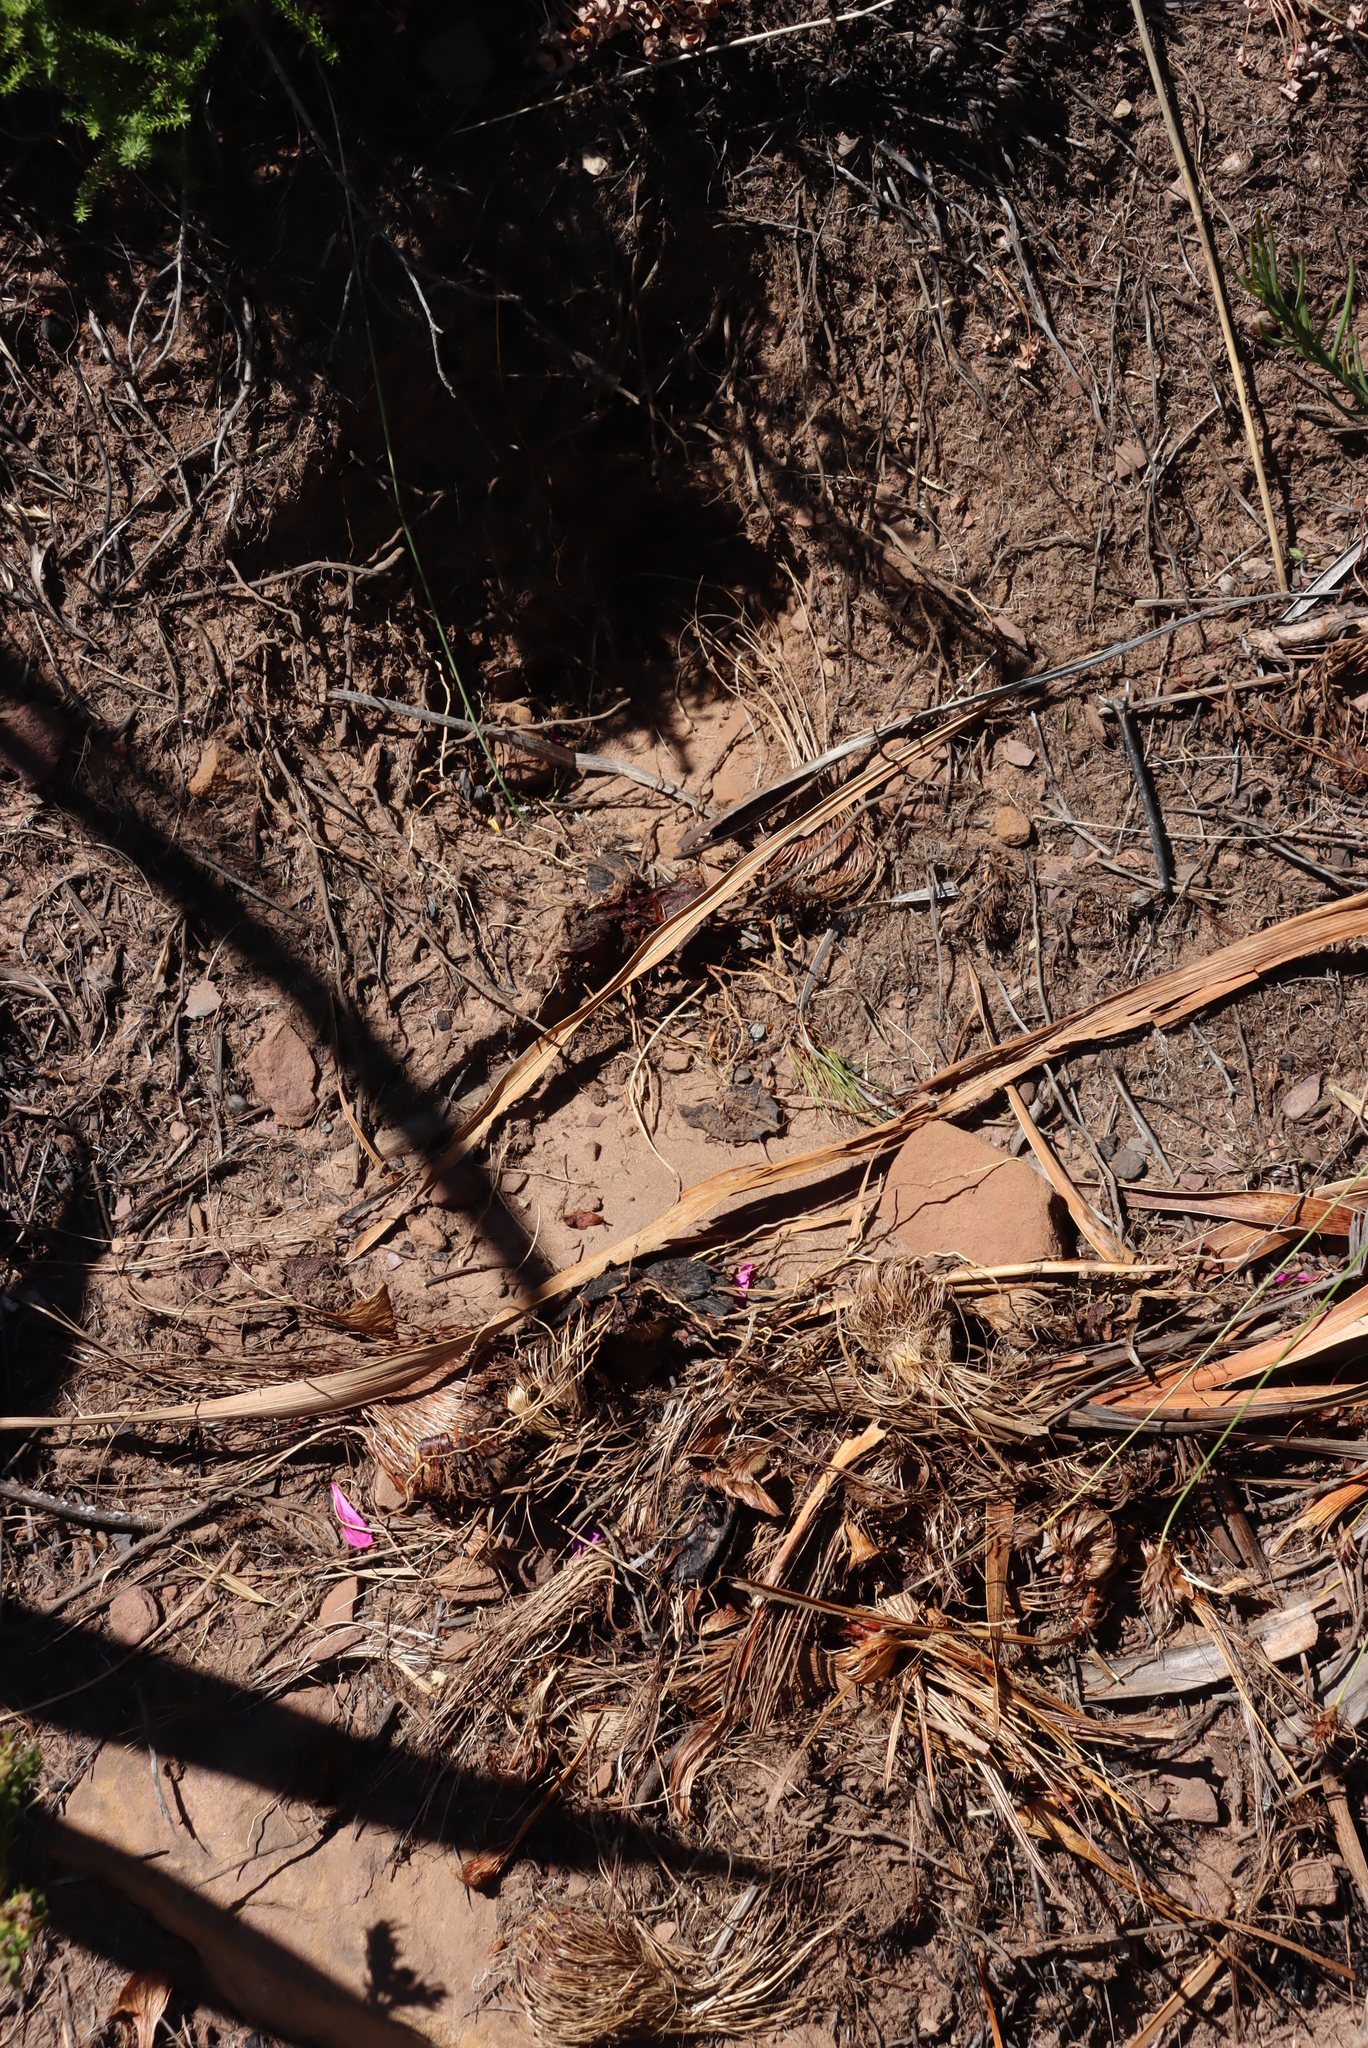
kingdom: Animalia
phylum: Chordata
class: Mammalia
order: Rodentia
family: Hystricidae
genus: Hystrix
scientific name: Hystrix africaeaustralis
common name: Cape porcupine
